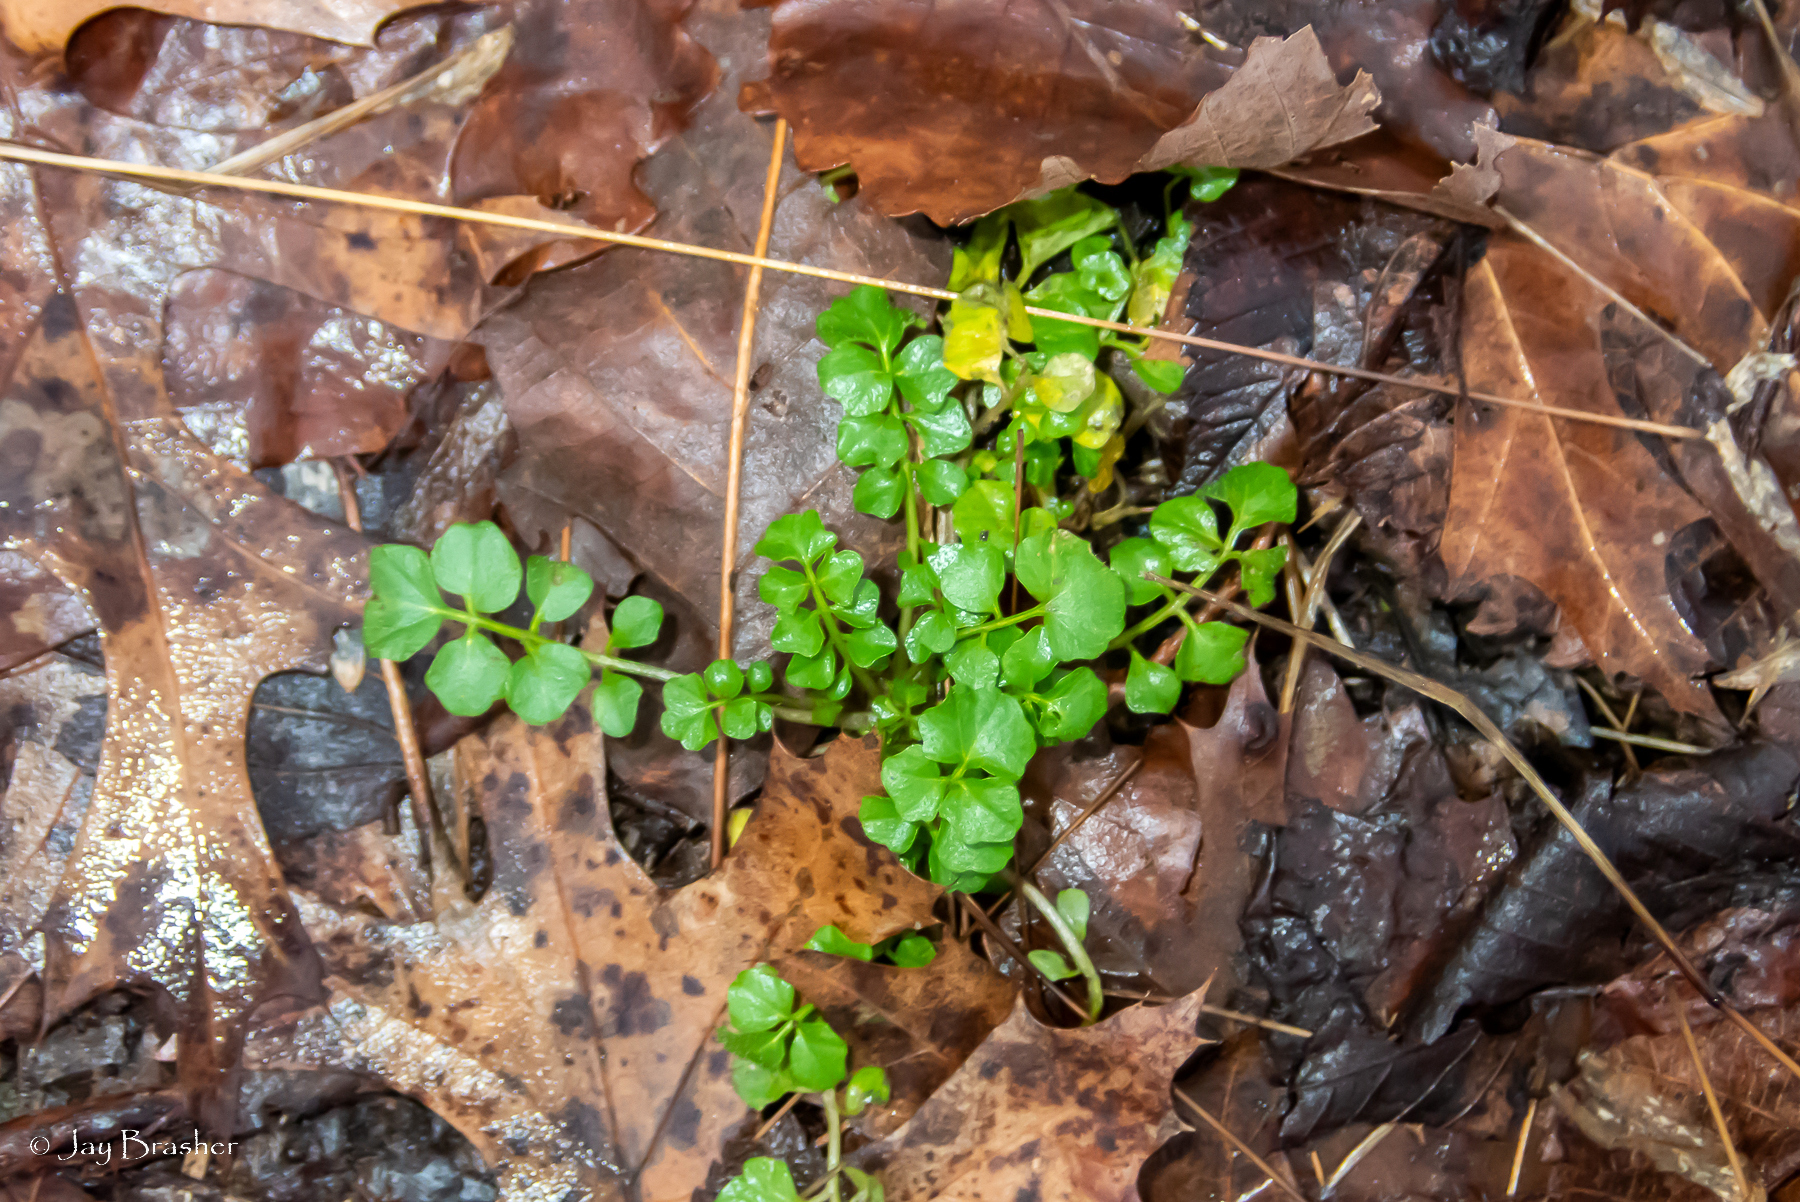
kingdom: Plantae
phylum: Tracheophyta
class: Magnoliopsida
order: Brassicales
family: Brassicaceae
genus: Cardamine
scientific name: Cardamine hirsuta
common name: Hairy bittercress
